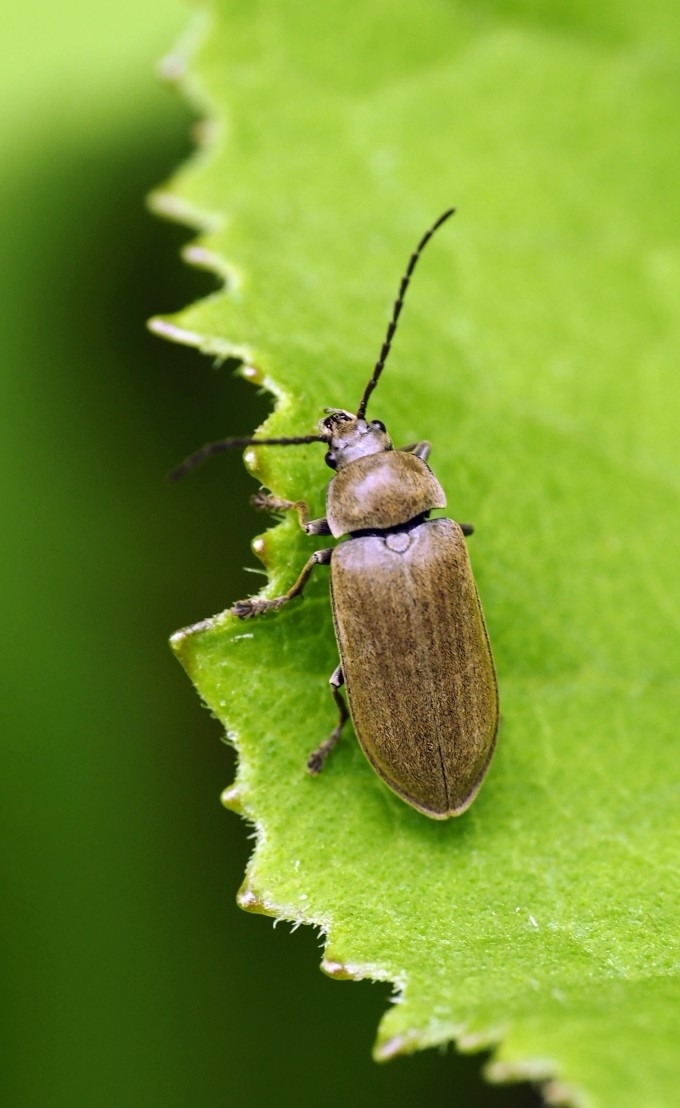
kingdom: Animalia
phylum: Arthropoda
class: Insecta
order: Coleoptera
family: Dascillidae
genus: Dascillus
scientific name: Dascillus cervinus
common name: Orchid beetle
